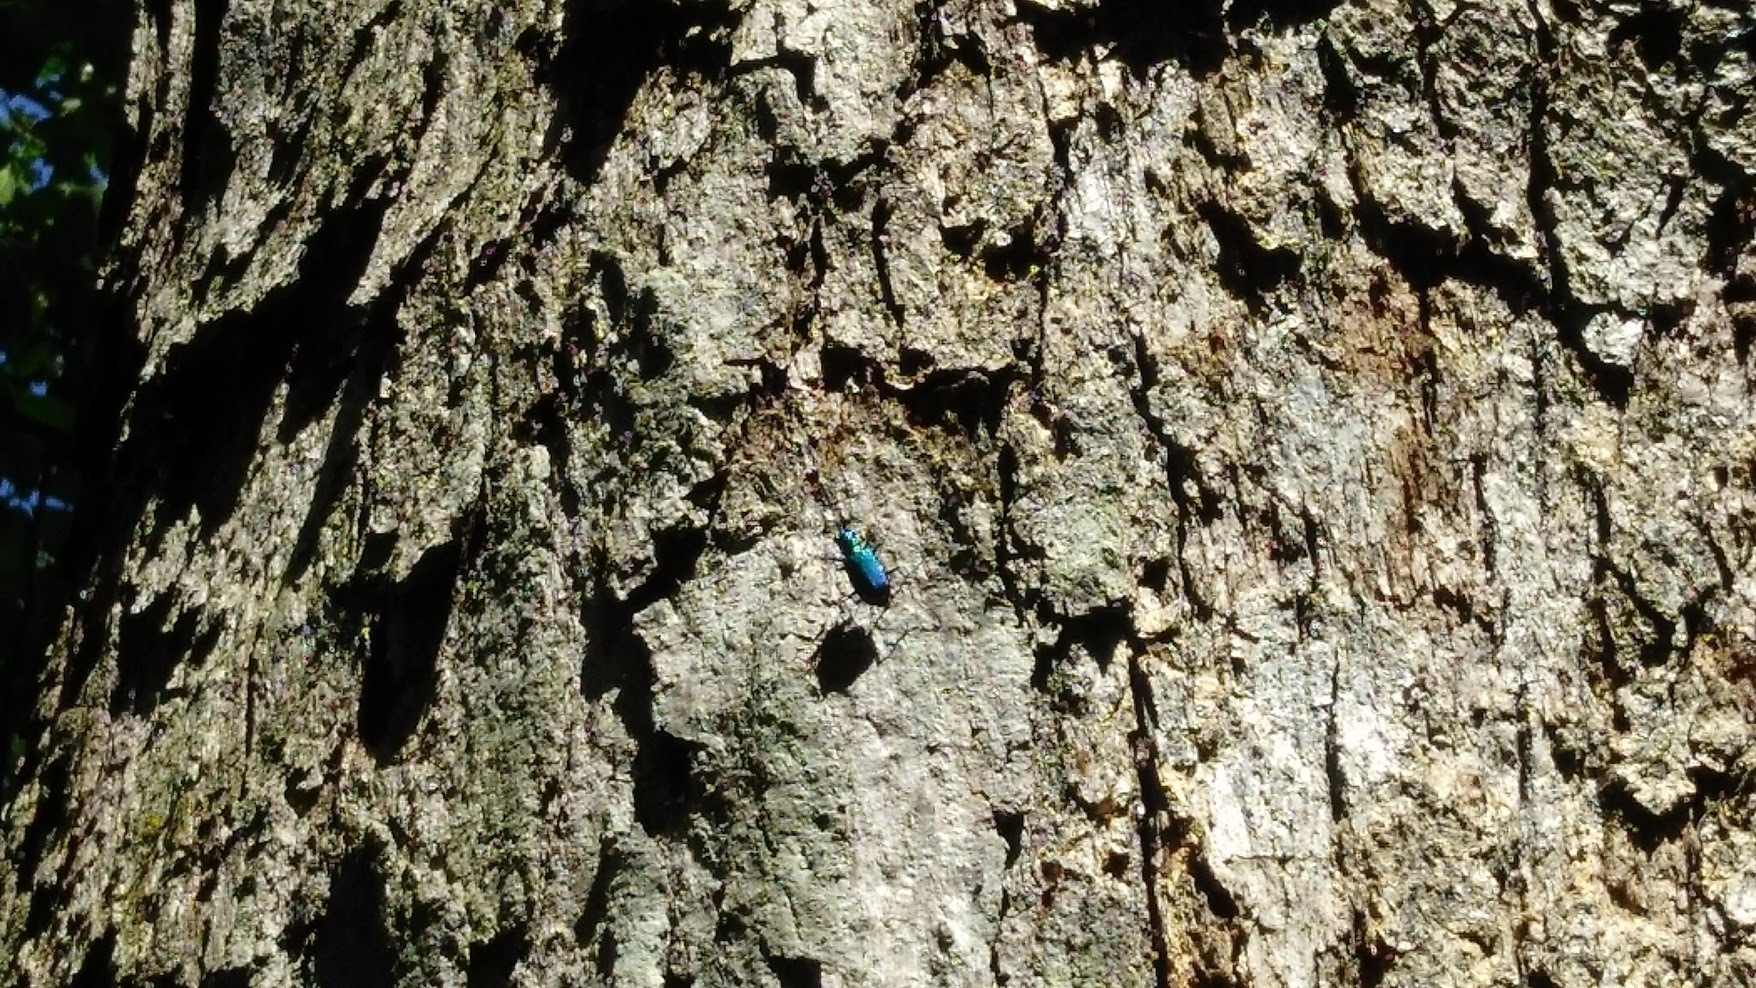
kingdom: Animalia
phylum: Arthropoda
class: Insecta
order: Coleoptera
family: Carabidae
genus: Cicindela
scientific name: Cicindela sexguttata
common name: Six-spotted tiger beetle
